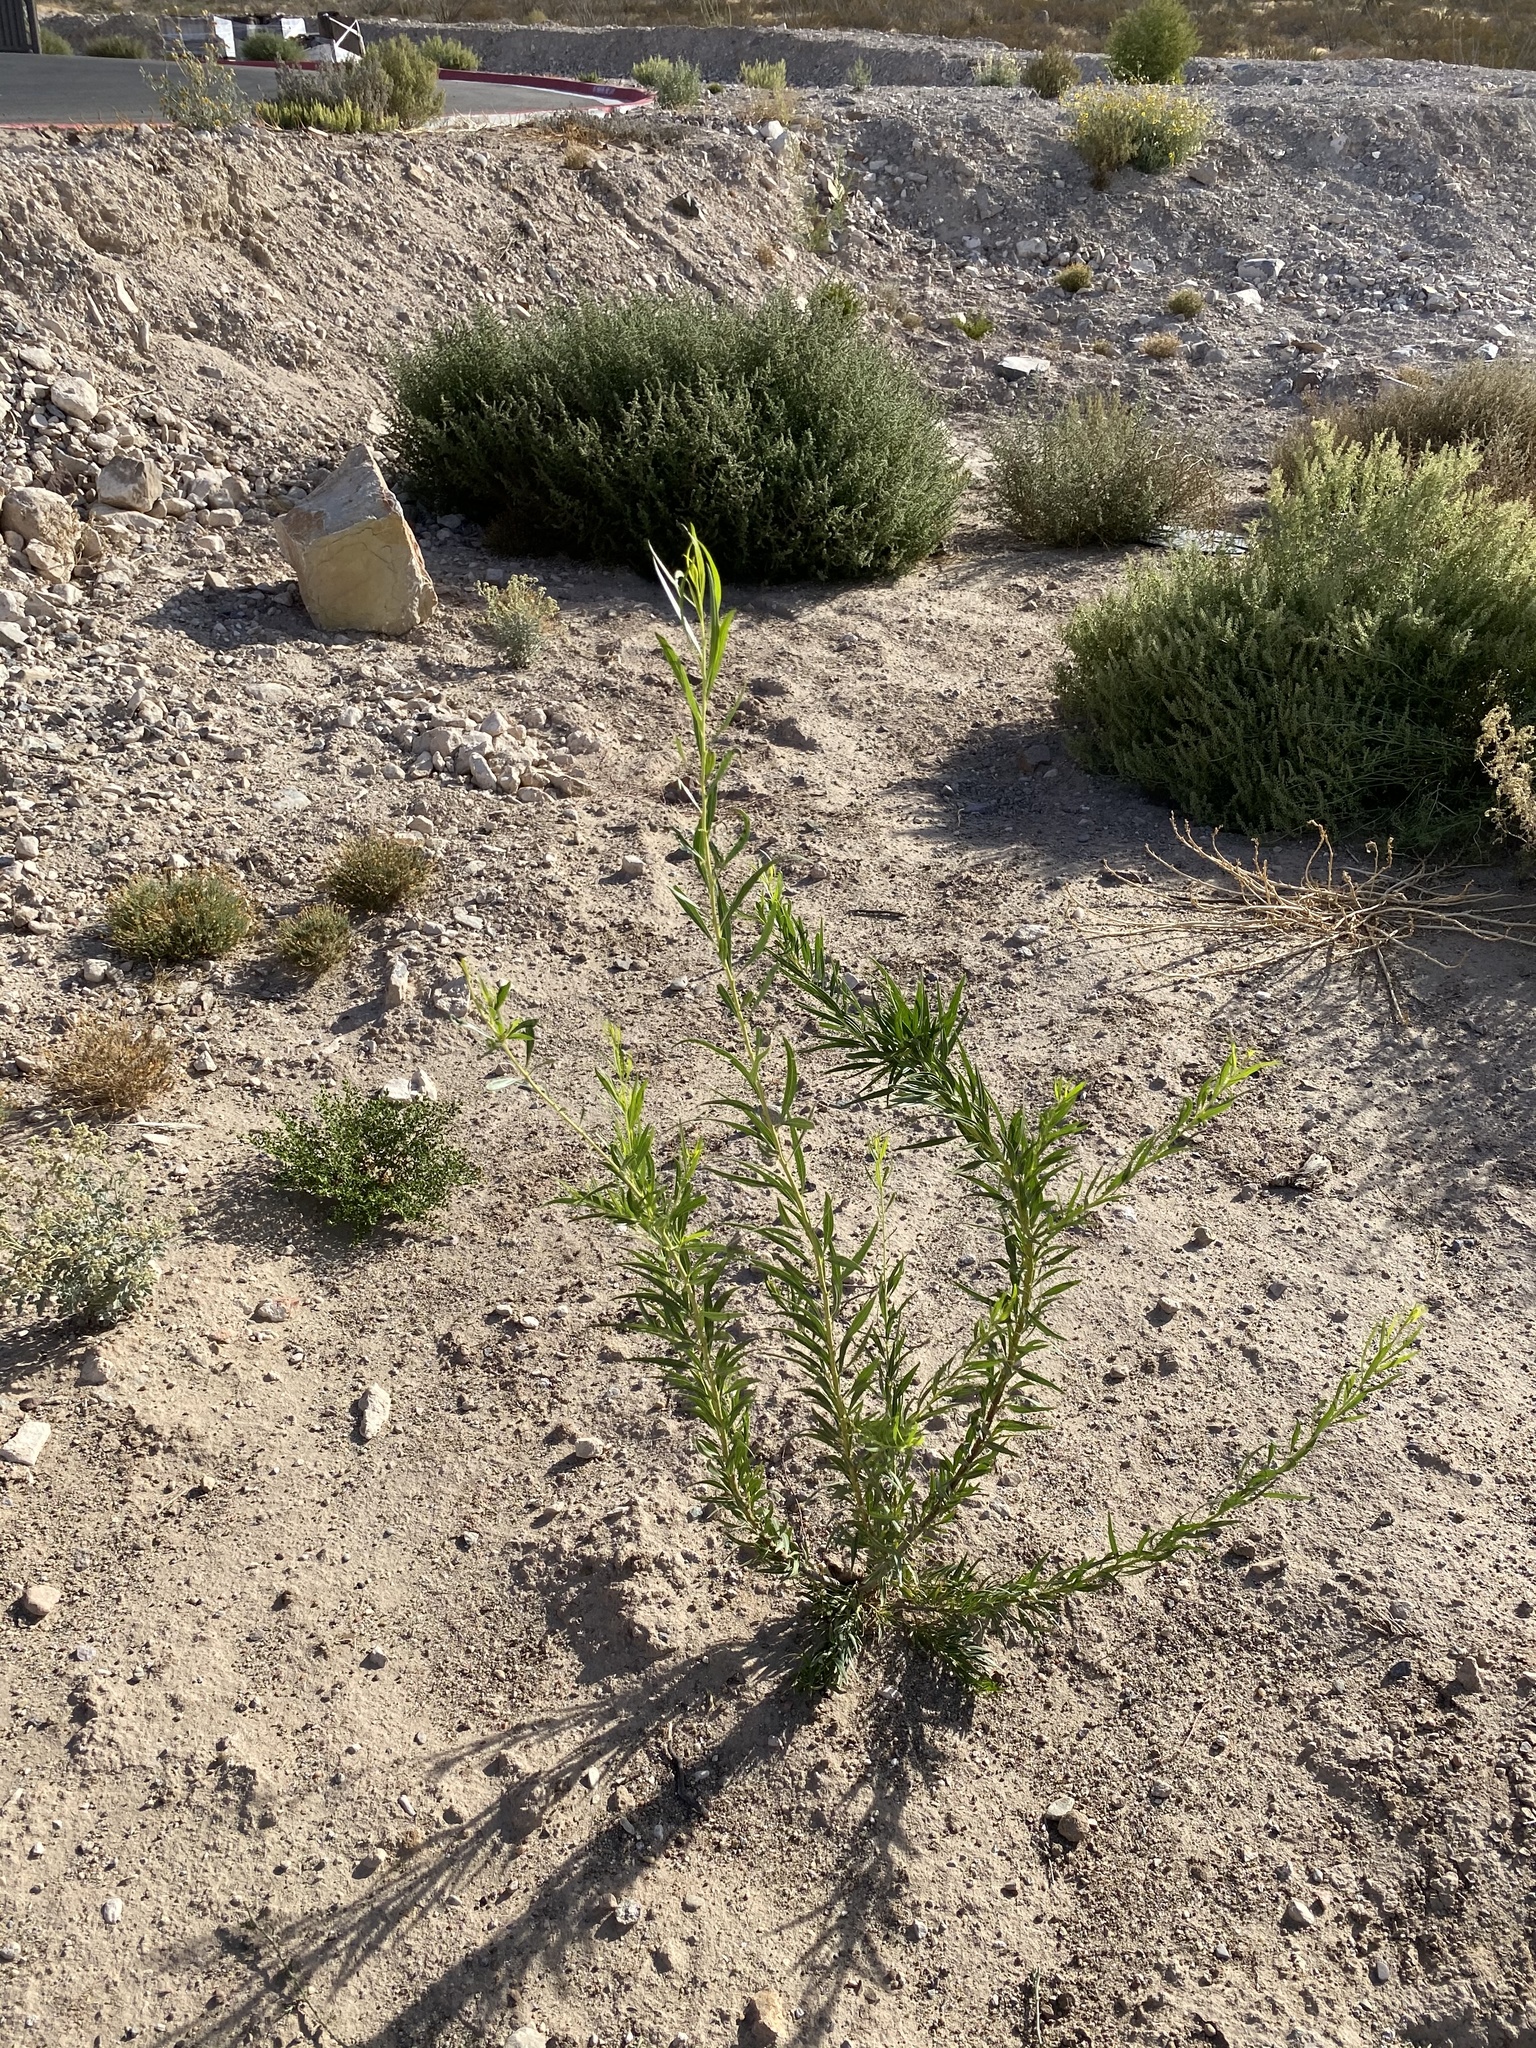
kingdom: Plantae
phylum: Tracheophyta
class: Magnoliopsida
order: Lamiales
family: Bignoniaceae
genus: Chilopsis
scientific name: Chilopsis linearis
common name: Desert-willow
